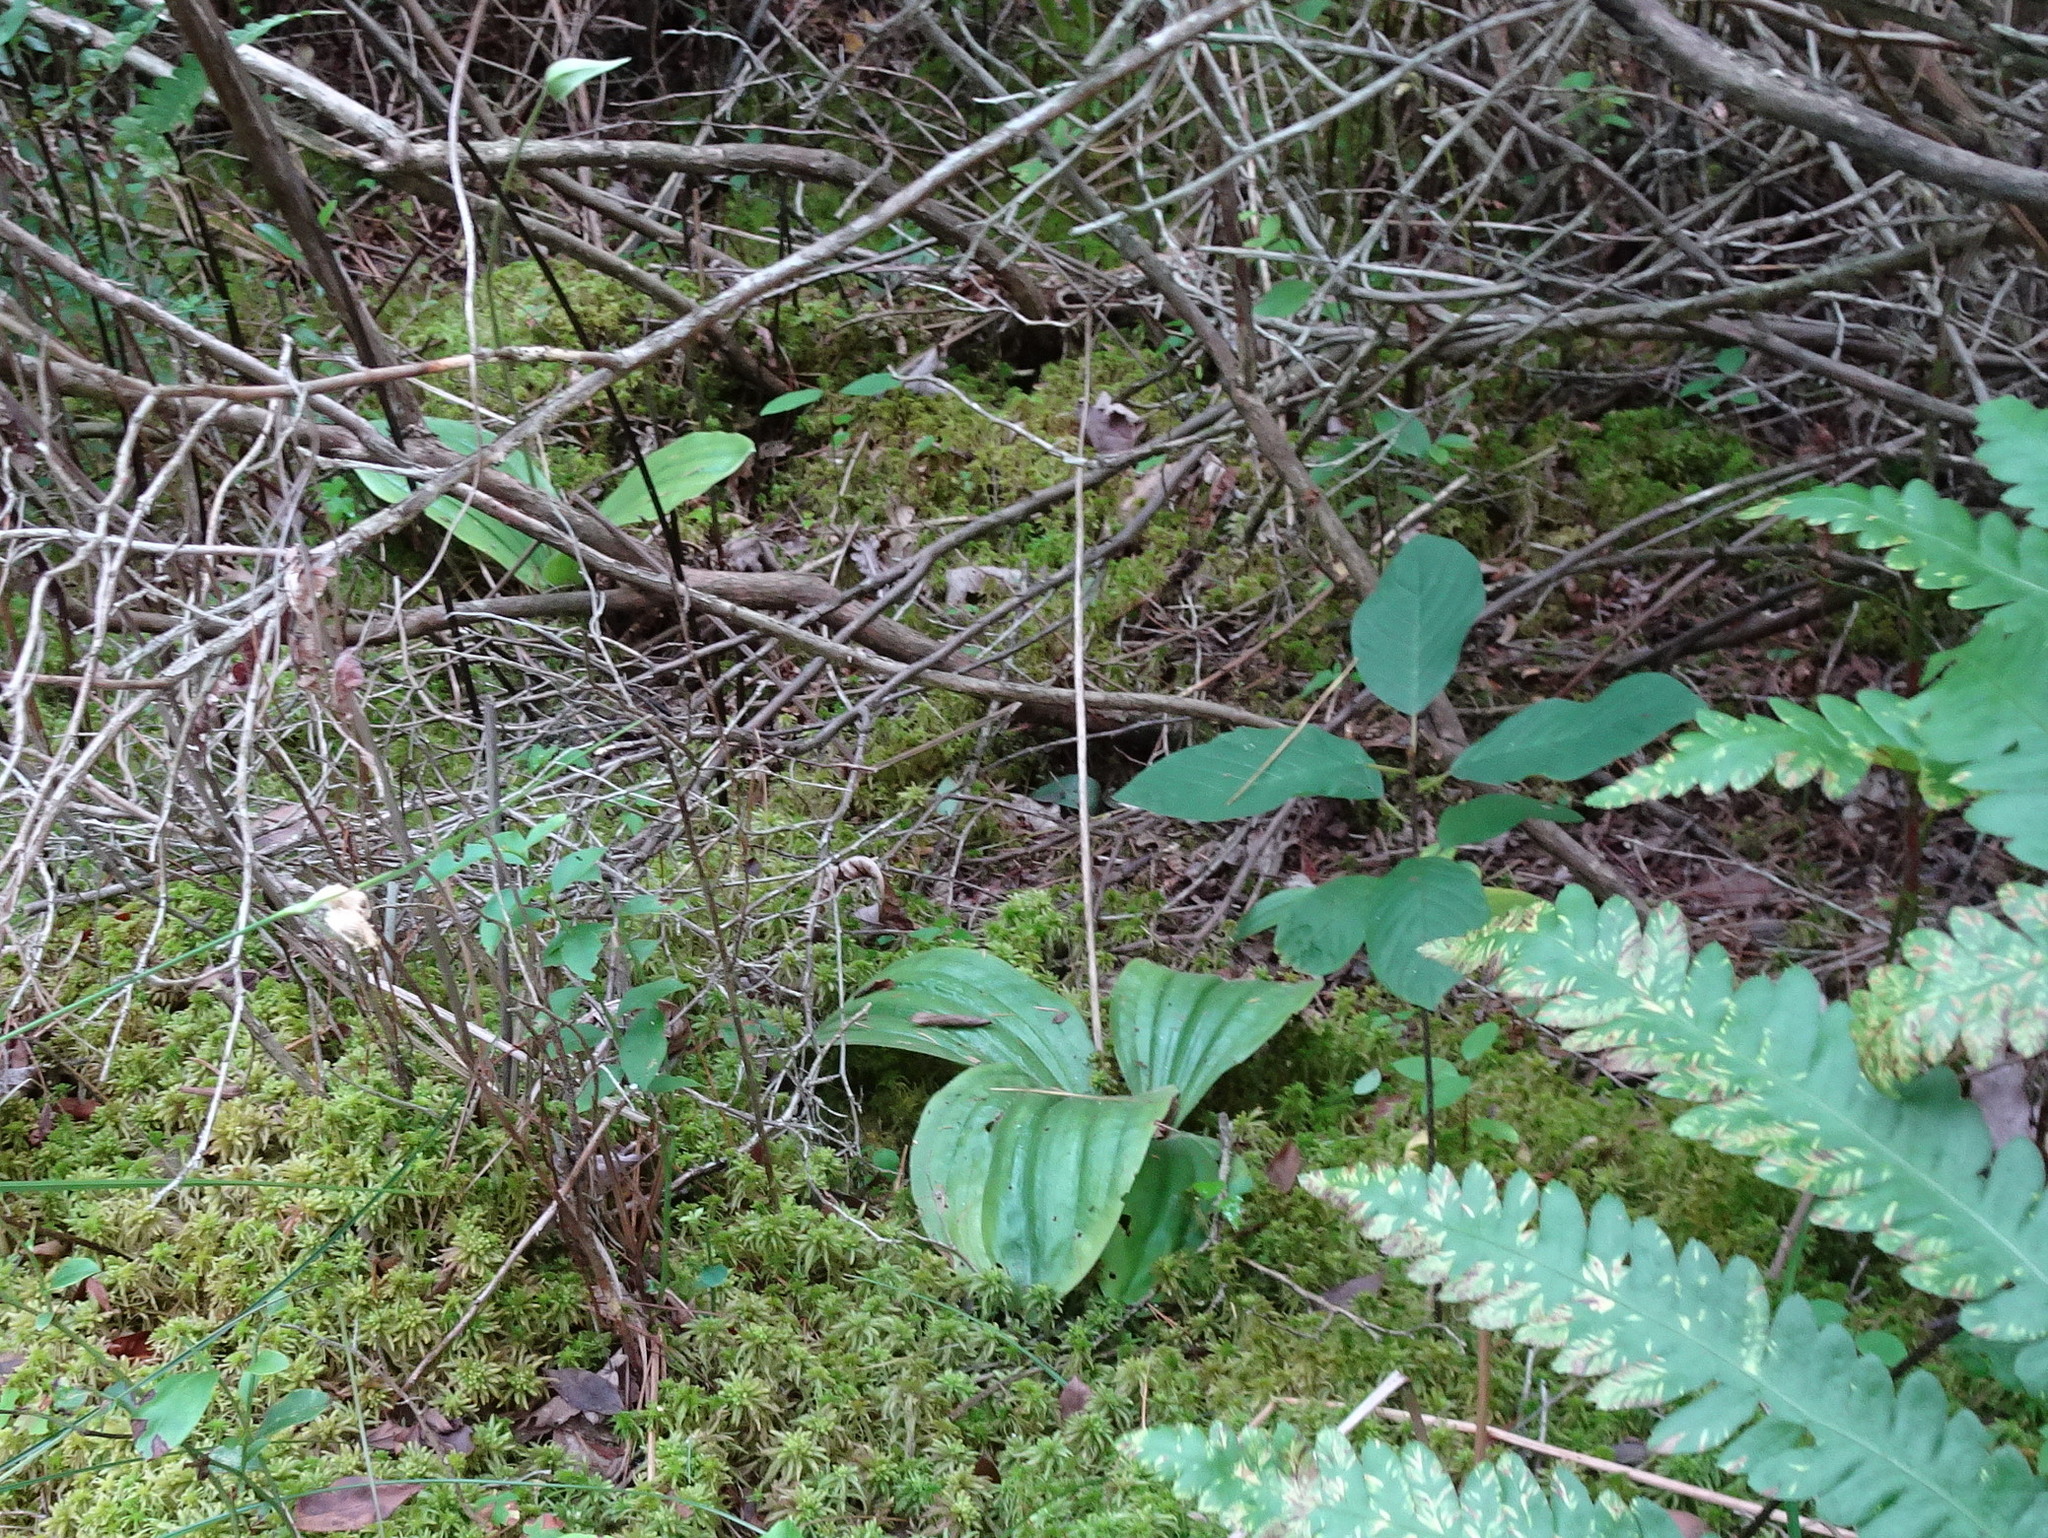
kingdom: Plantae
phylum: Tracheophyta
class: Liliopsida
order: Asparagales
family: Orchidaceae
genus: Cypripedium
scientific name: Cypripedium acaule
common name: Pink lady's-slipper
